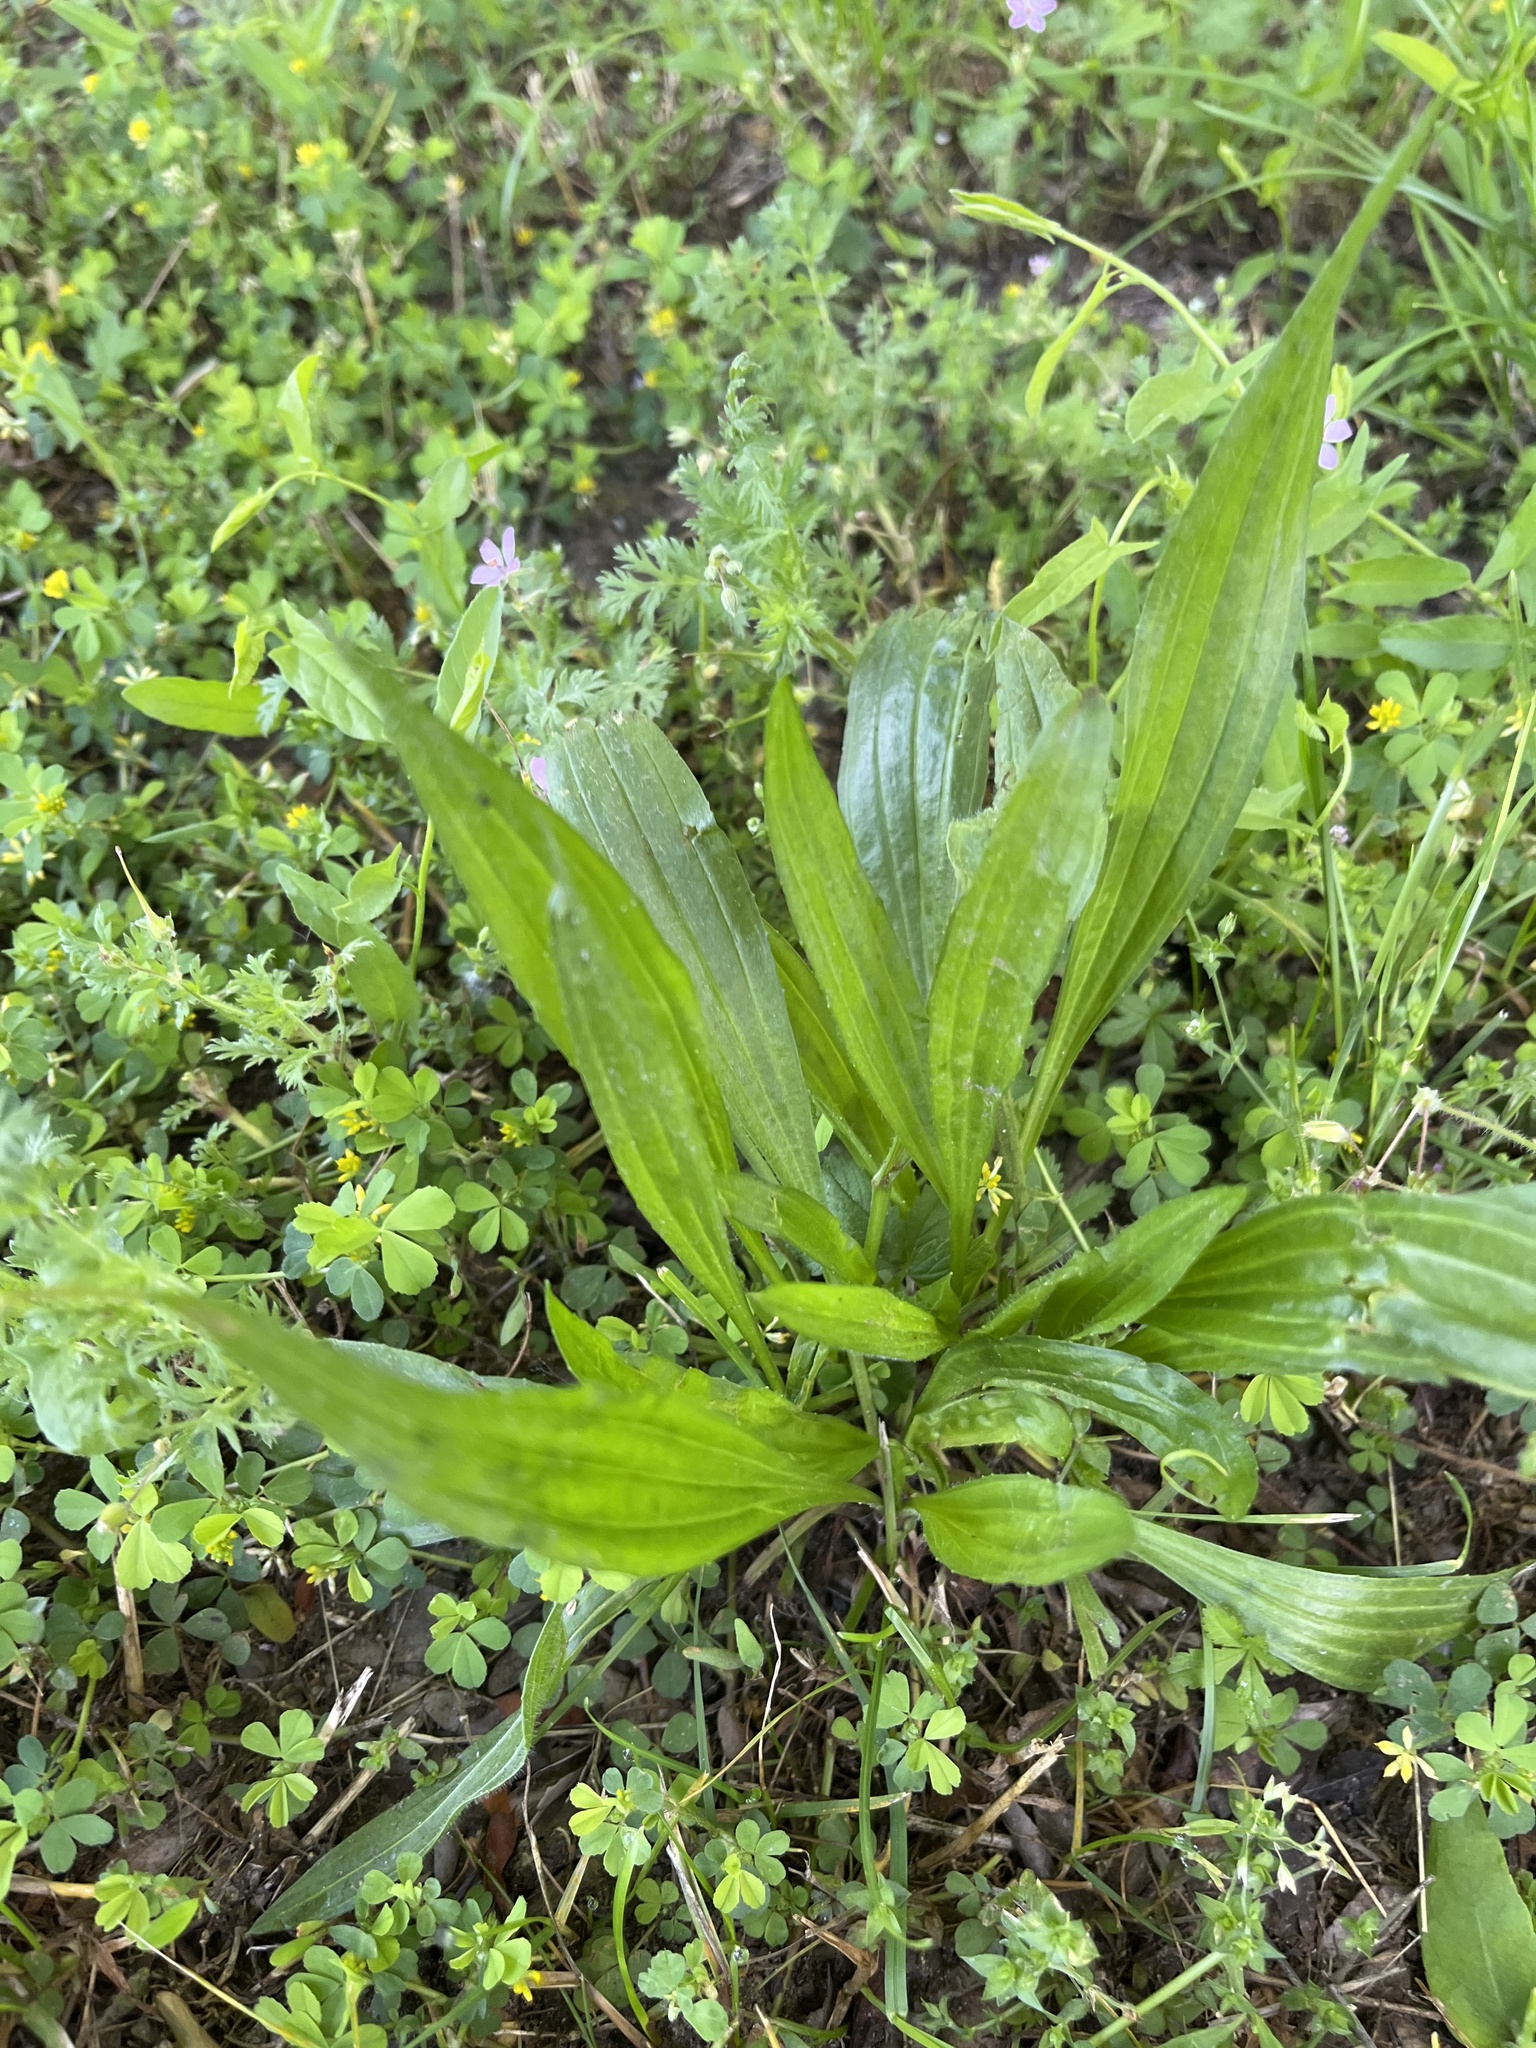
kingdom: Plantae
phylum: Tracheophyta
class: Magnoliopsida
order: Lamiales
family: Plantaginaceae
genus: Plantago
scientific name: Plantago lanceolata
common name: Ribwort plantain
